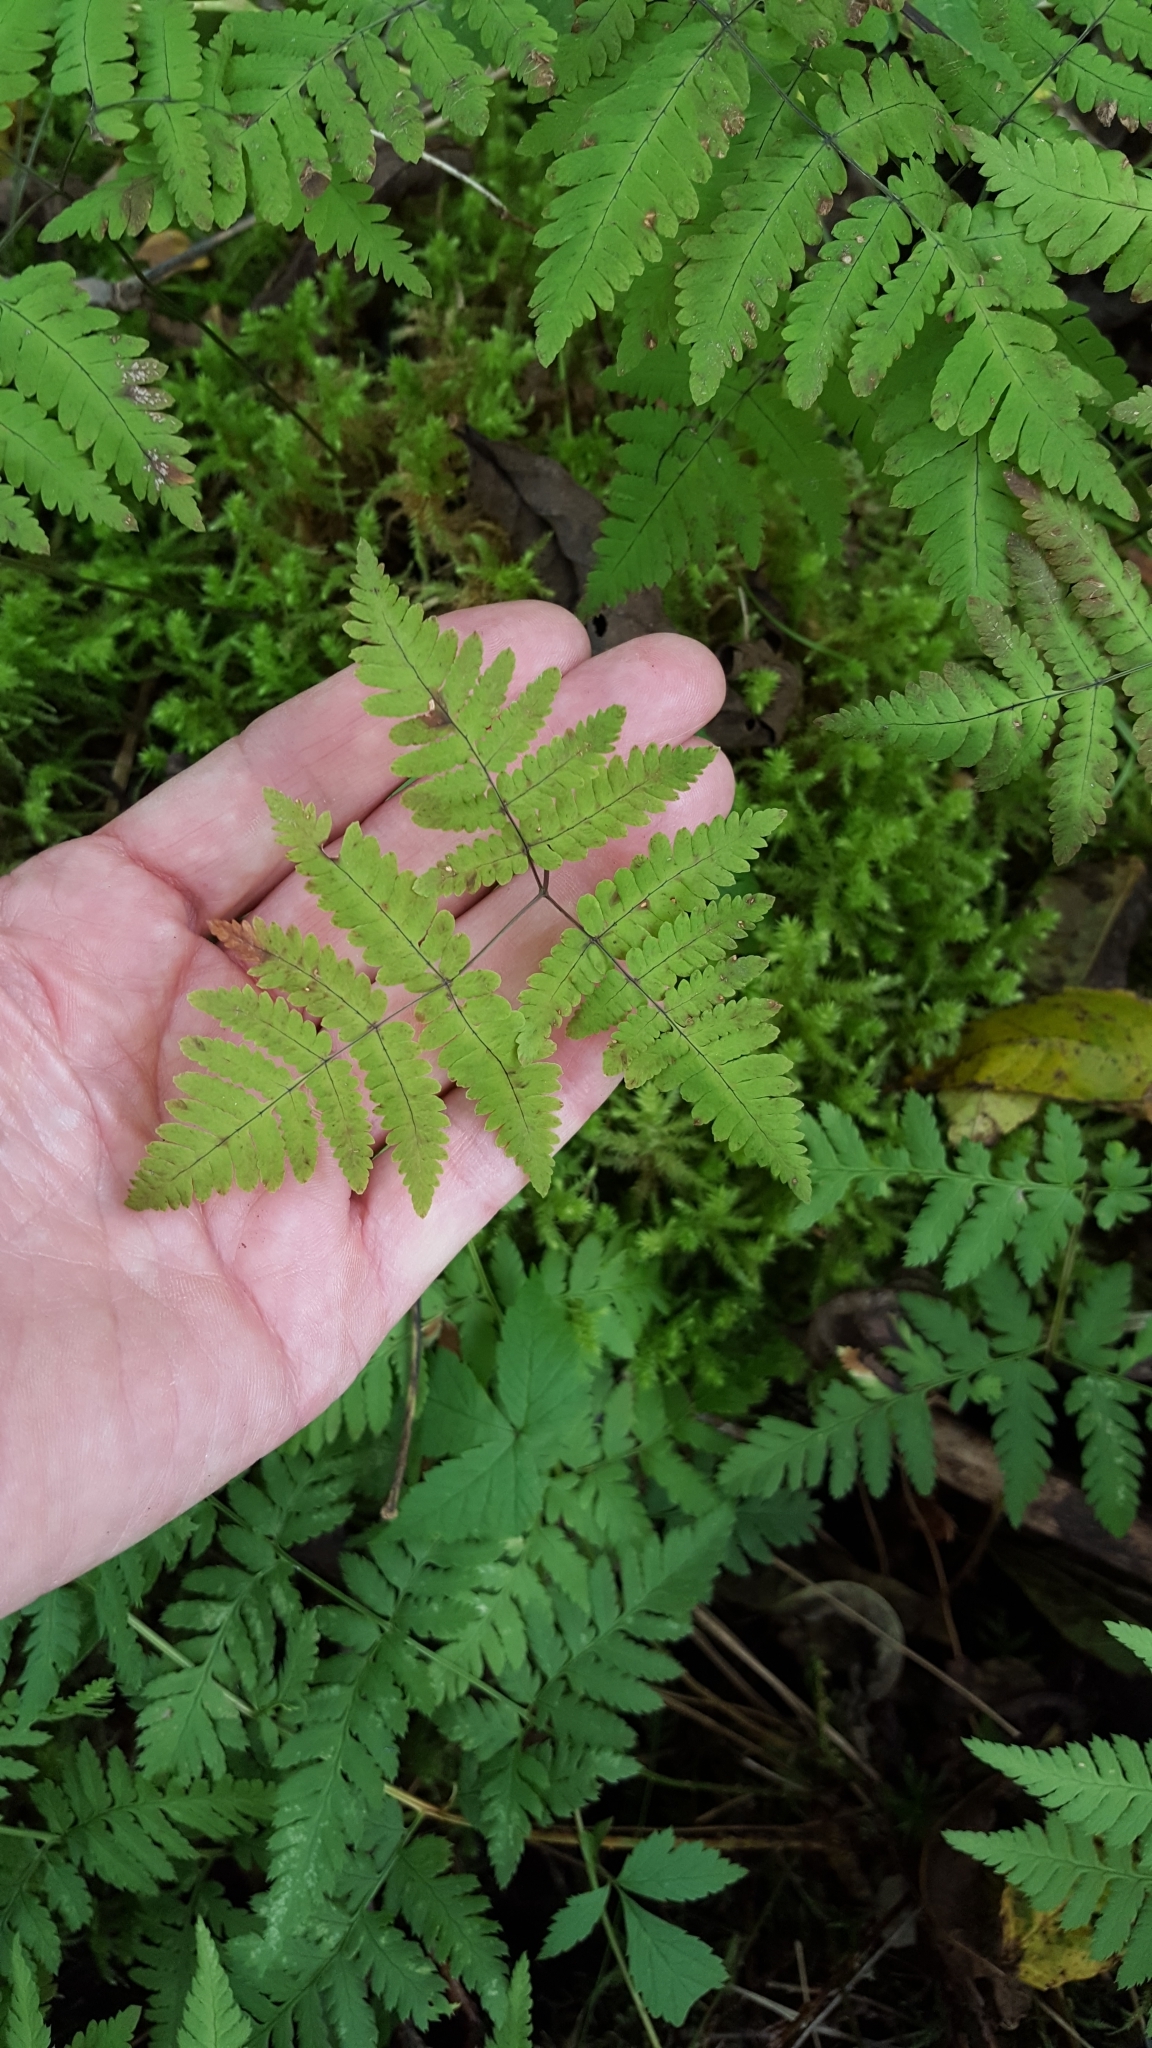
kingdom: Plantae
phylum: Tracheophyta
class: Polypodiopsida
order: Polypodiales
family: Cystopteridaceae
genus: Gymnocarpium
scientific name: Gymnocarpium dryopteris
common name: Oak fern
